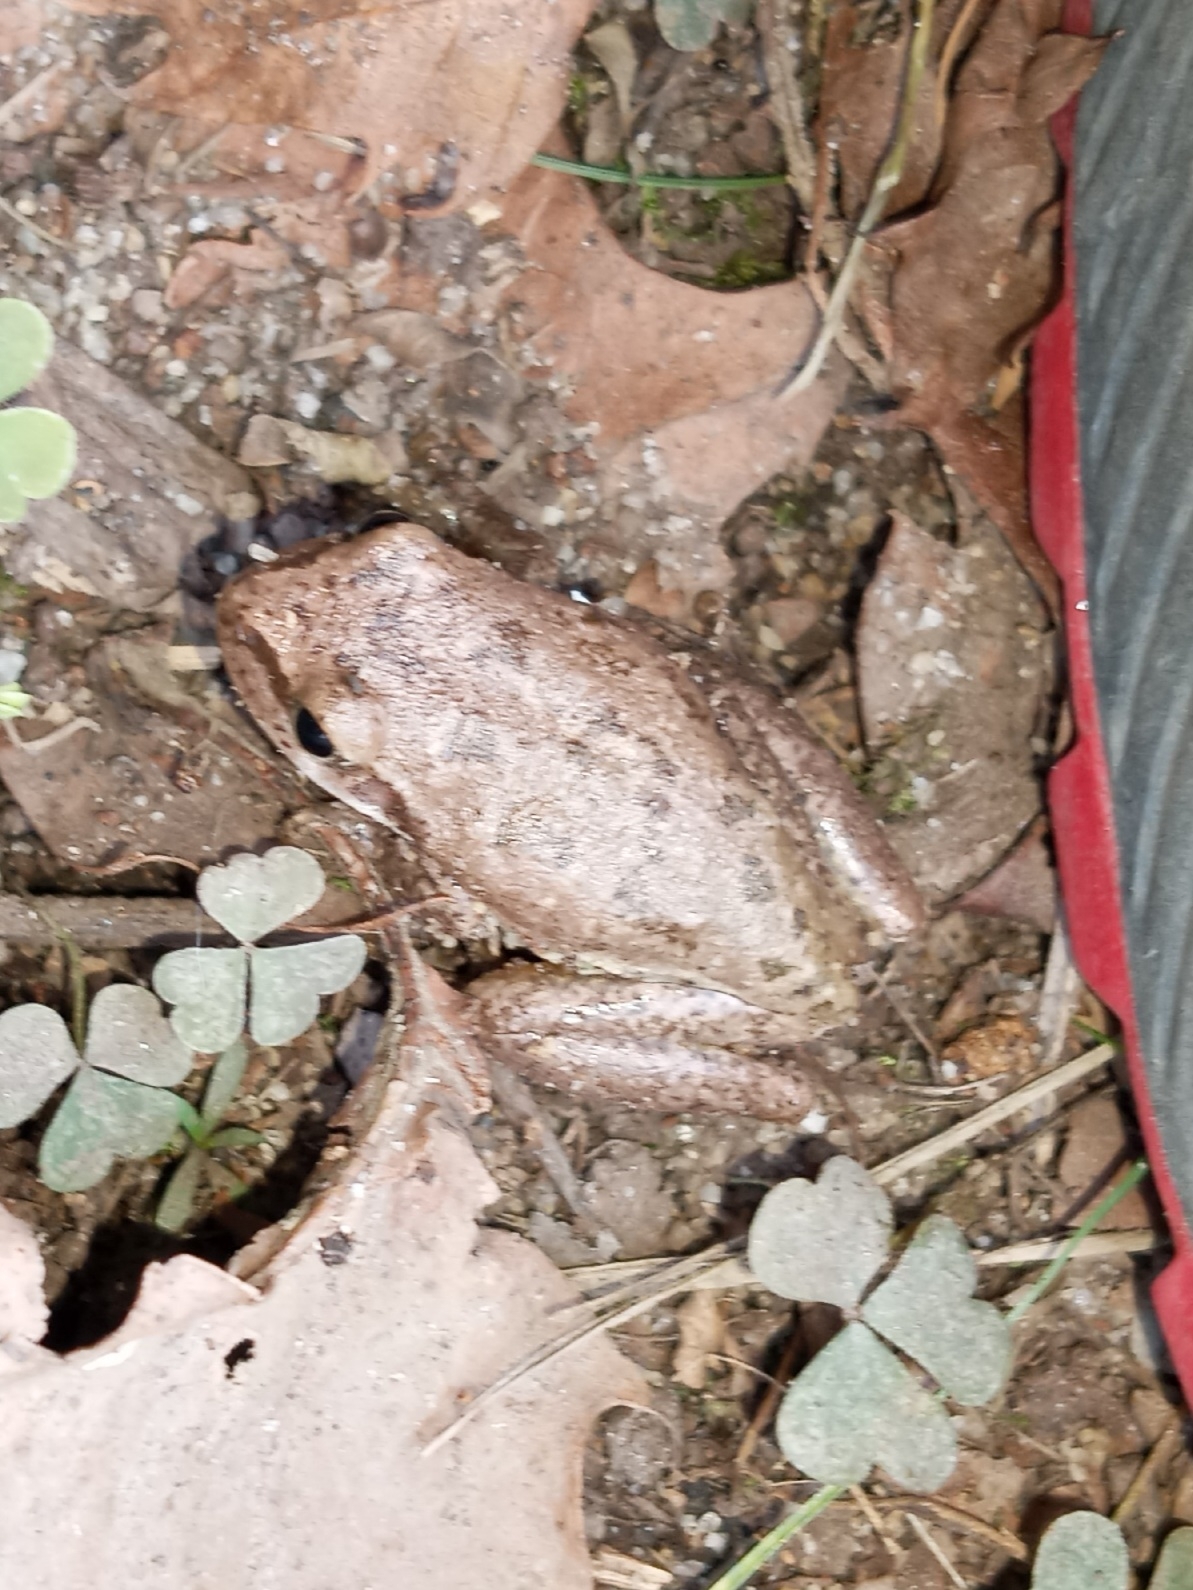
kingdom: Animalia
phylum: Chordata
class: Amphibia
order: Anura
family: Hylidae
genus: Dryophytes
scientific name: Dryophytes squirellus
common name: Squirrel treefrog
